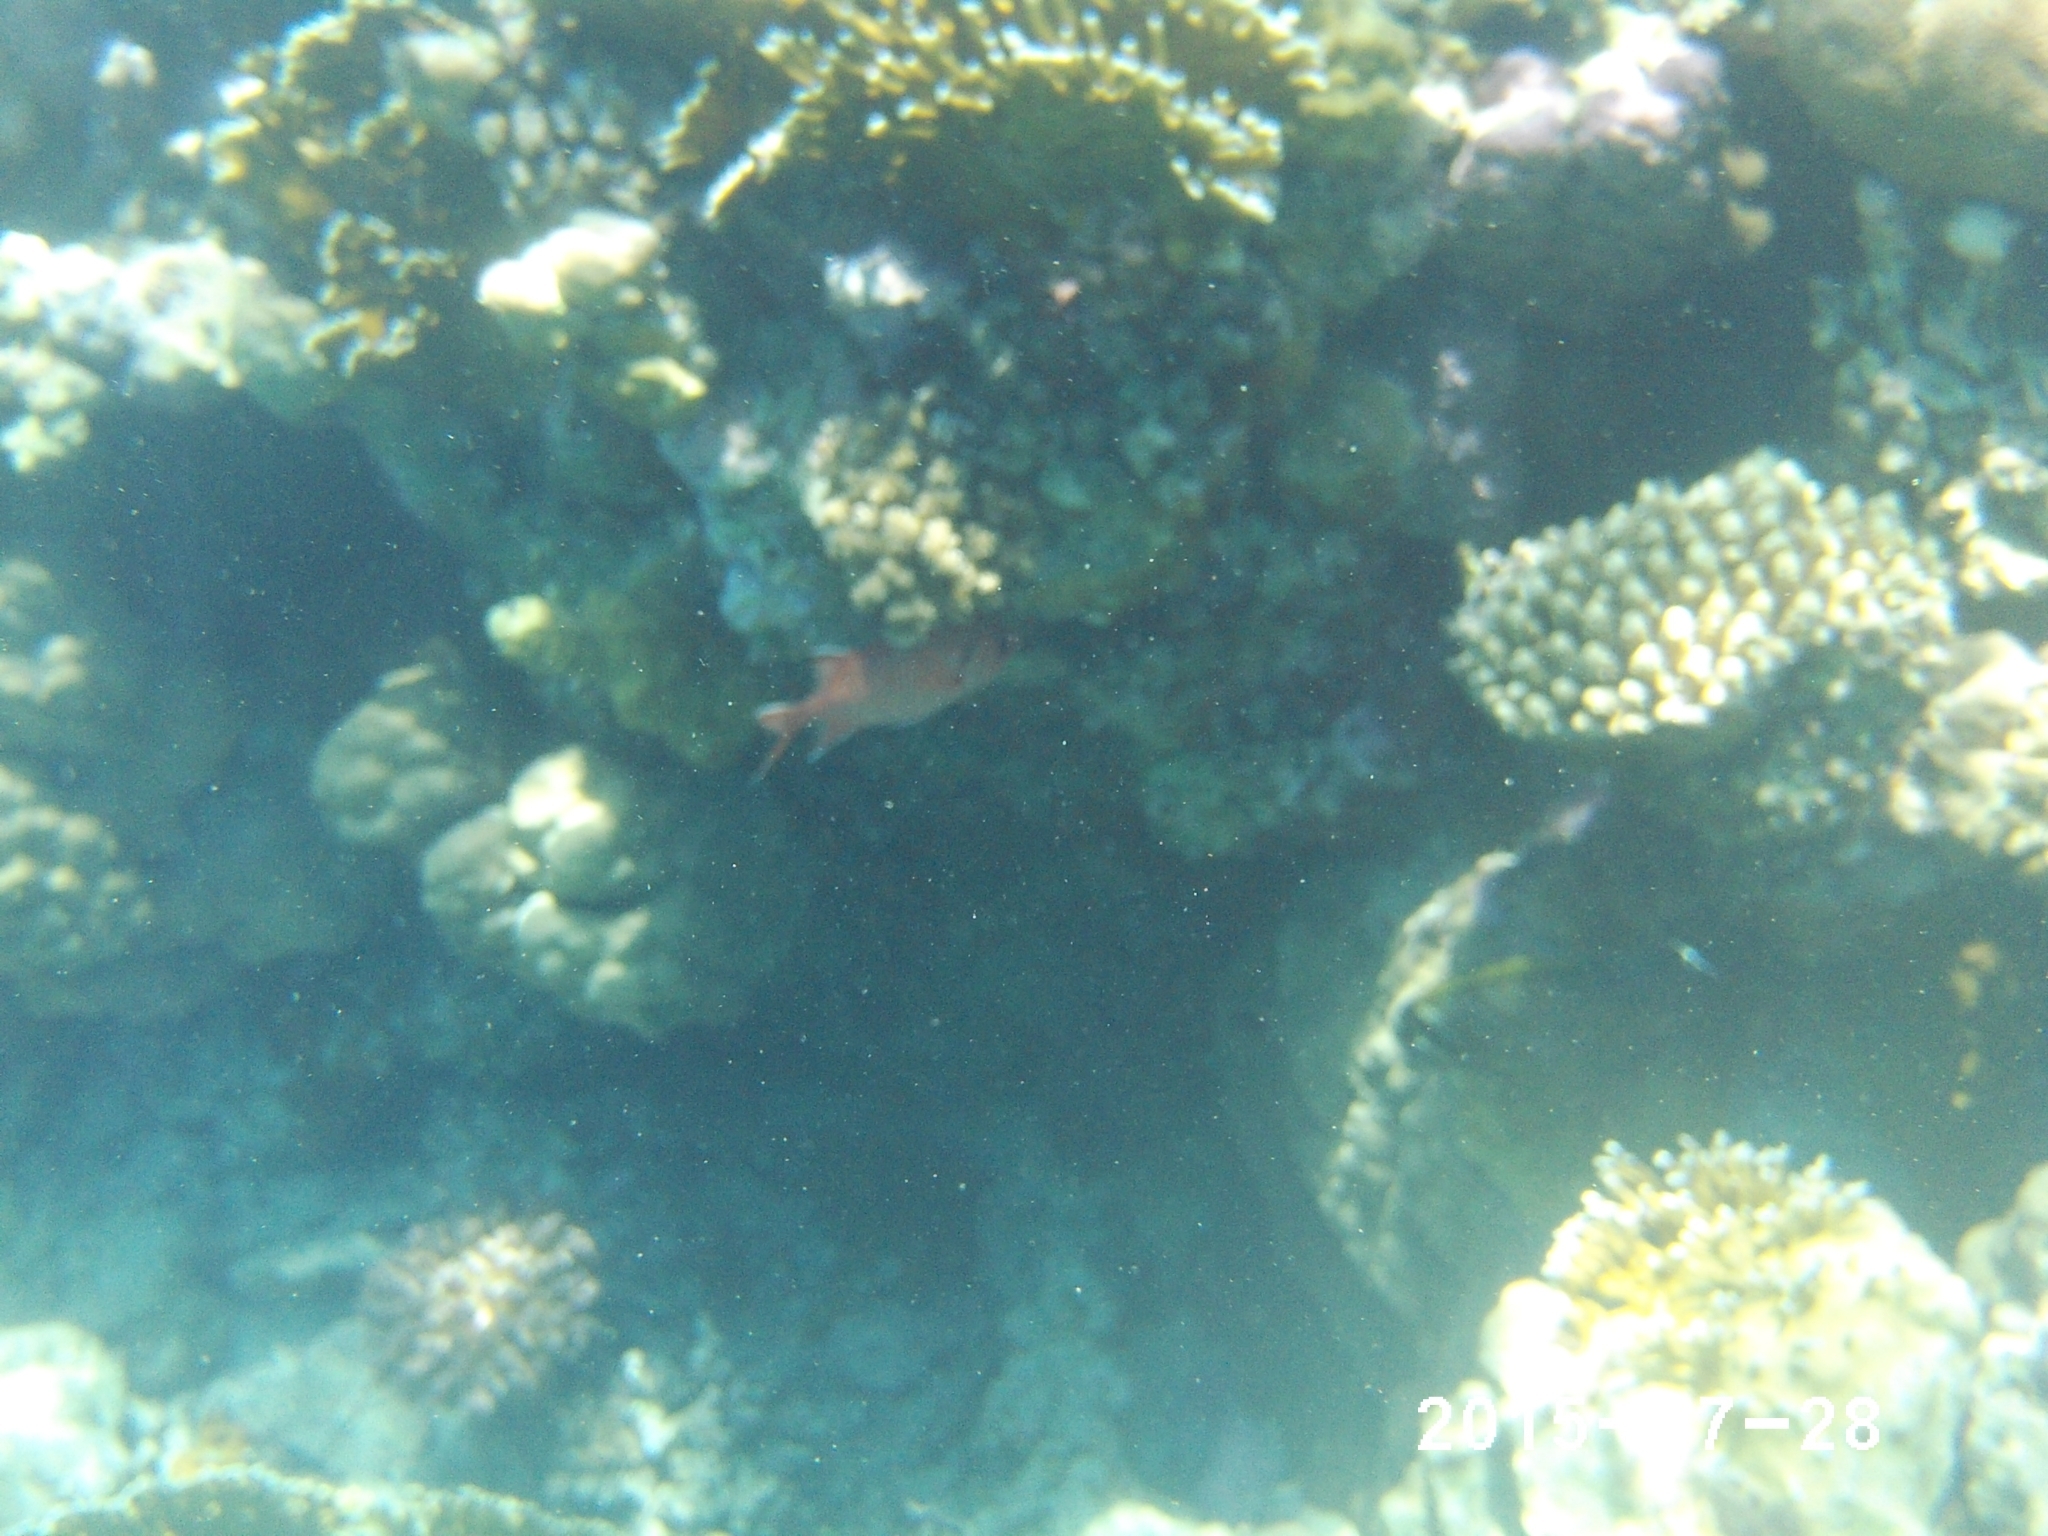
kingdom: Animalia
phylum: Chordata
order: Beryciformes
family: Holocentridae
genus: Myripristis
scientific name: Myripristis murdjan
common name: Big-eye soldierfish
